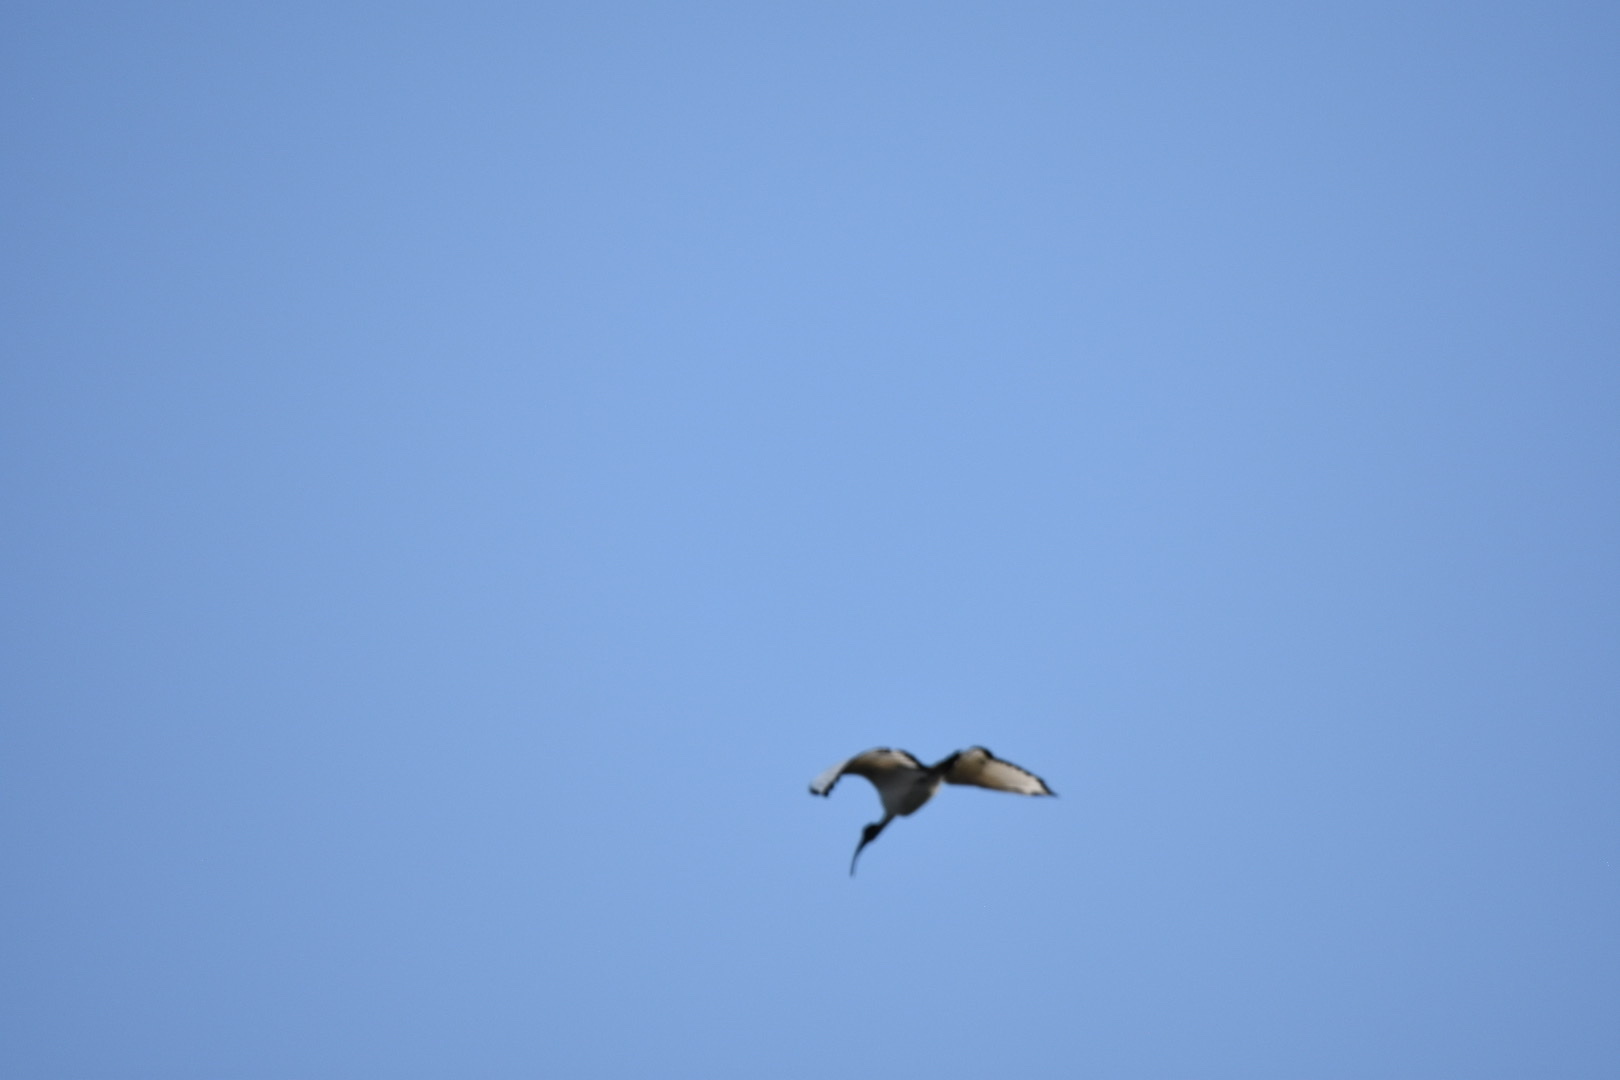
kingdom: Animalia
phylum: Chordata
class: Aves
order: Pelecaniformes
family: Threskiornithidae
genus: Threskiornis
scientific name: Threskiornis aethiopicus
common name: Sacred ibis
